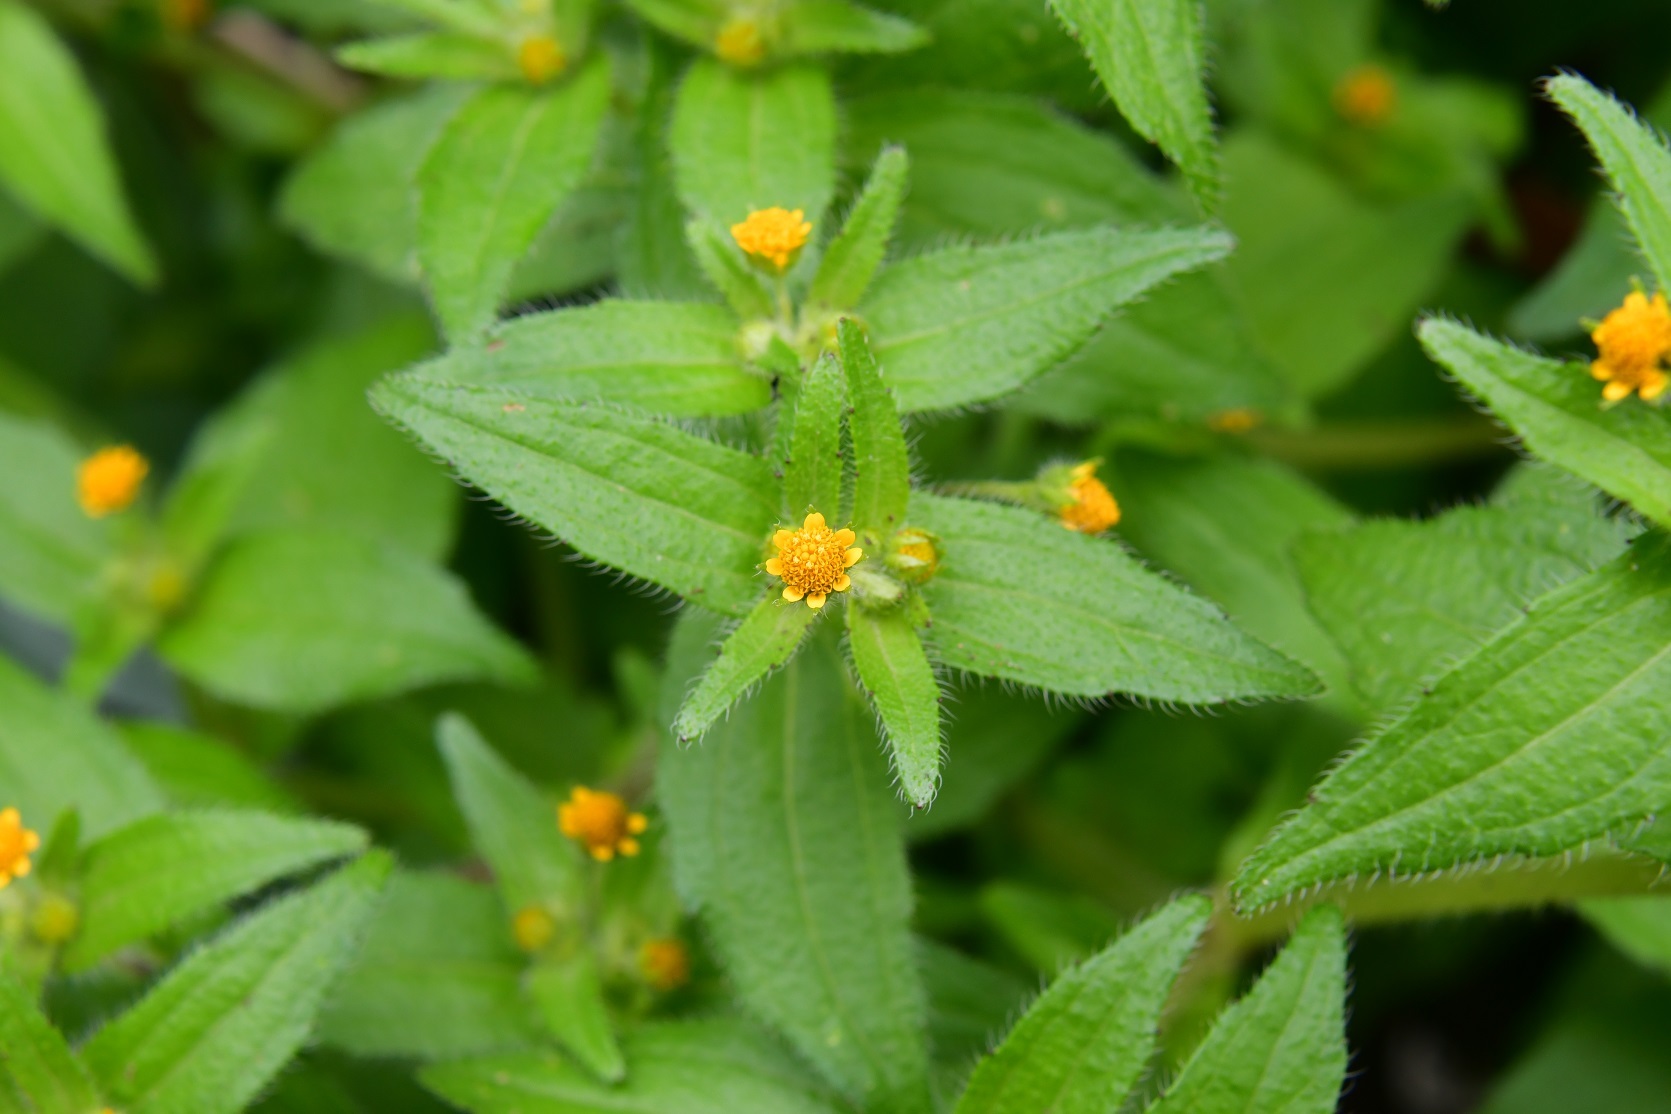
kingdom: Plantae
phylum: Tracheophyta
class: Magnoliopsida
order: Asterales
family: Asteraceae
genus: Jaegeria
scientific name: Jaegeria hirta
